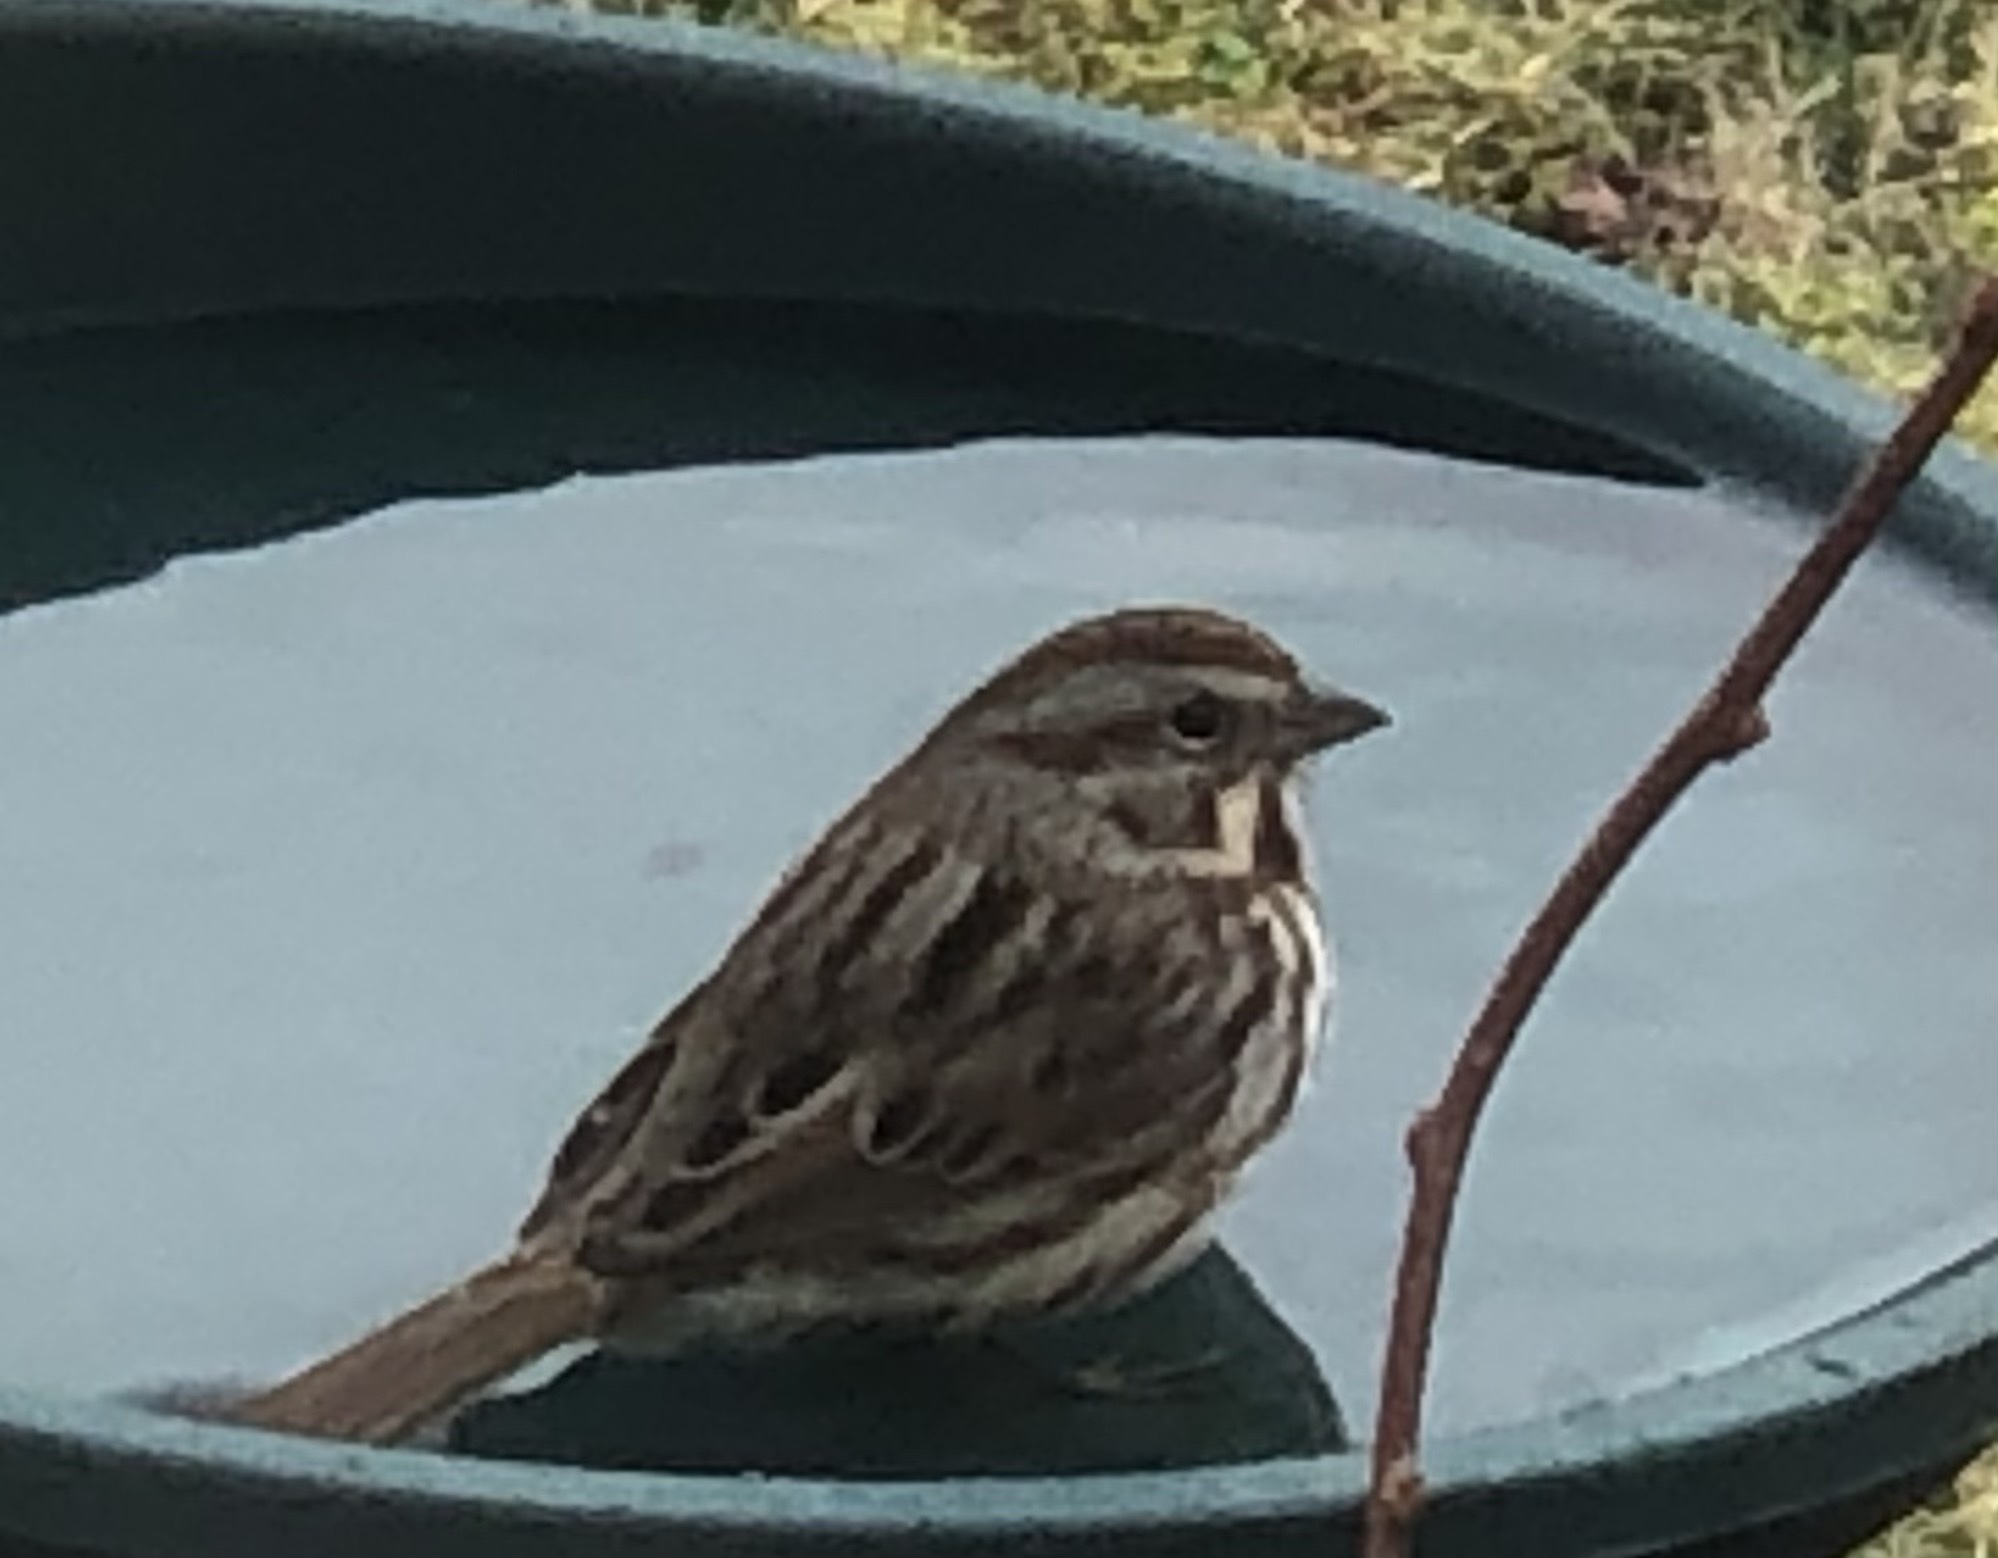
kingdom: Animalia
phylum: Chordata
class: Aves
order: Passeriformes
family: Passerellidae
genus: Melospiza
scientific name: Melospiza melodia
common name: Song sparrow
